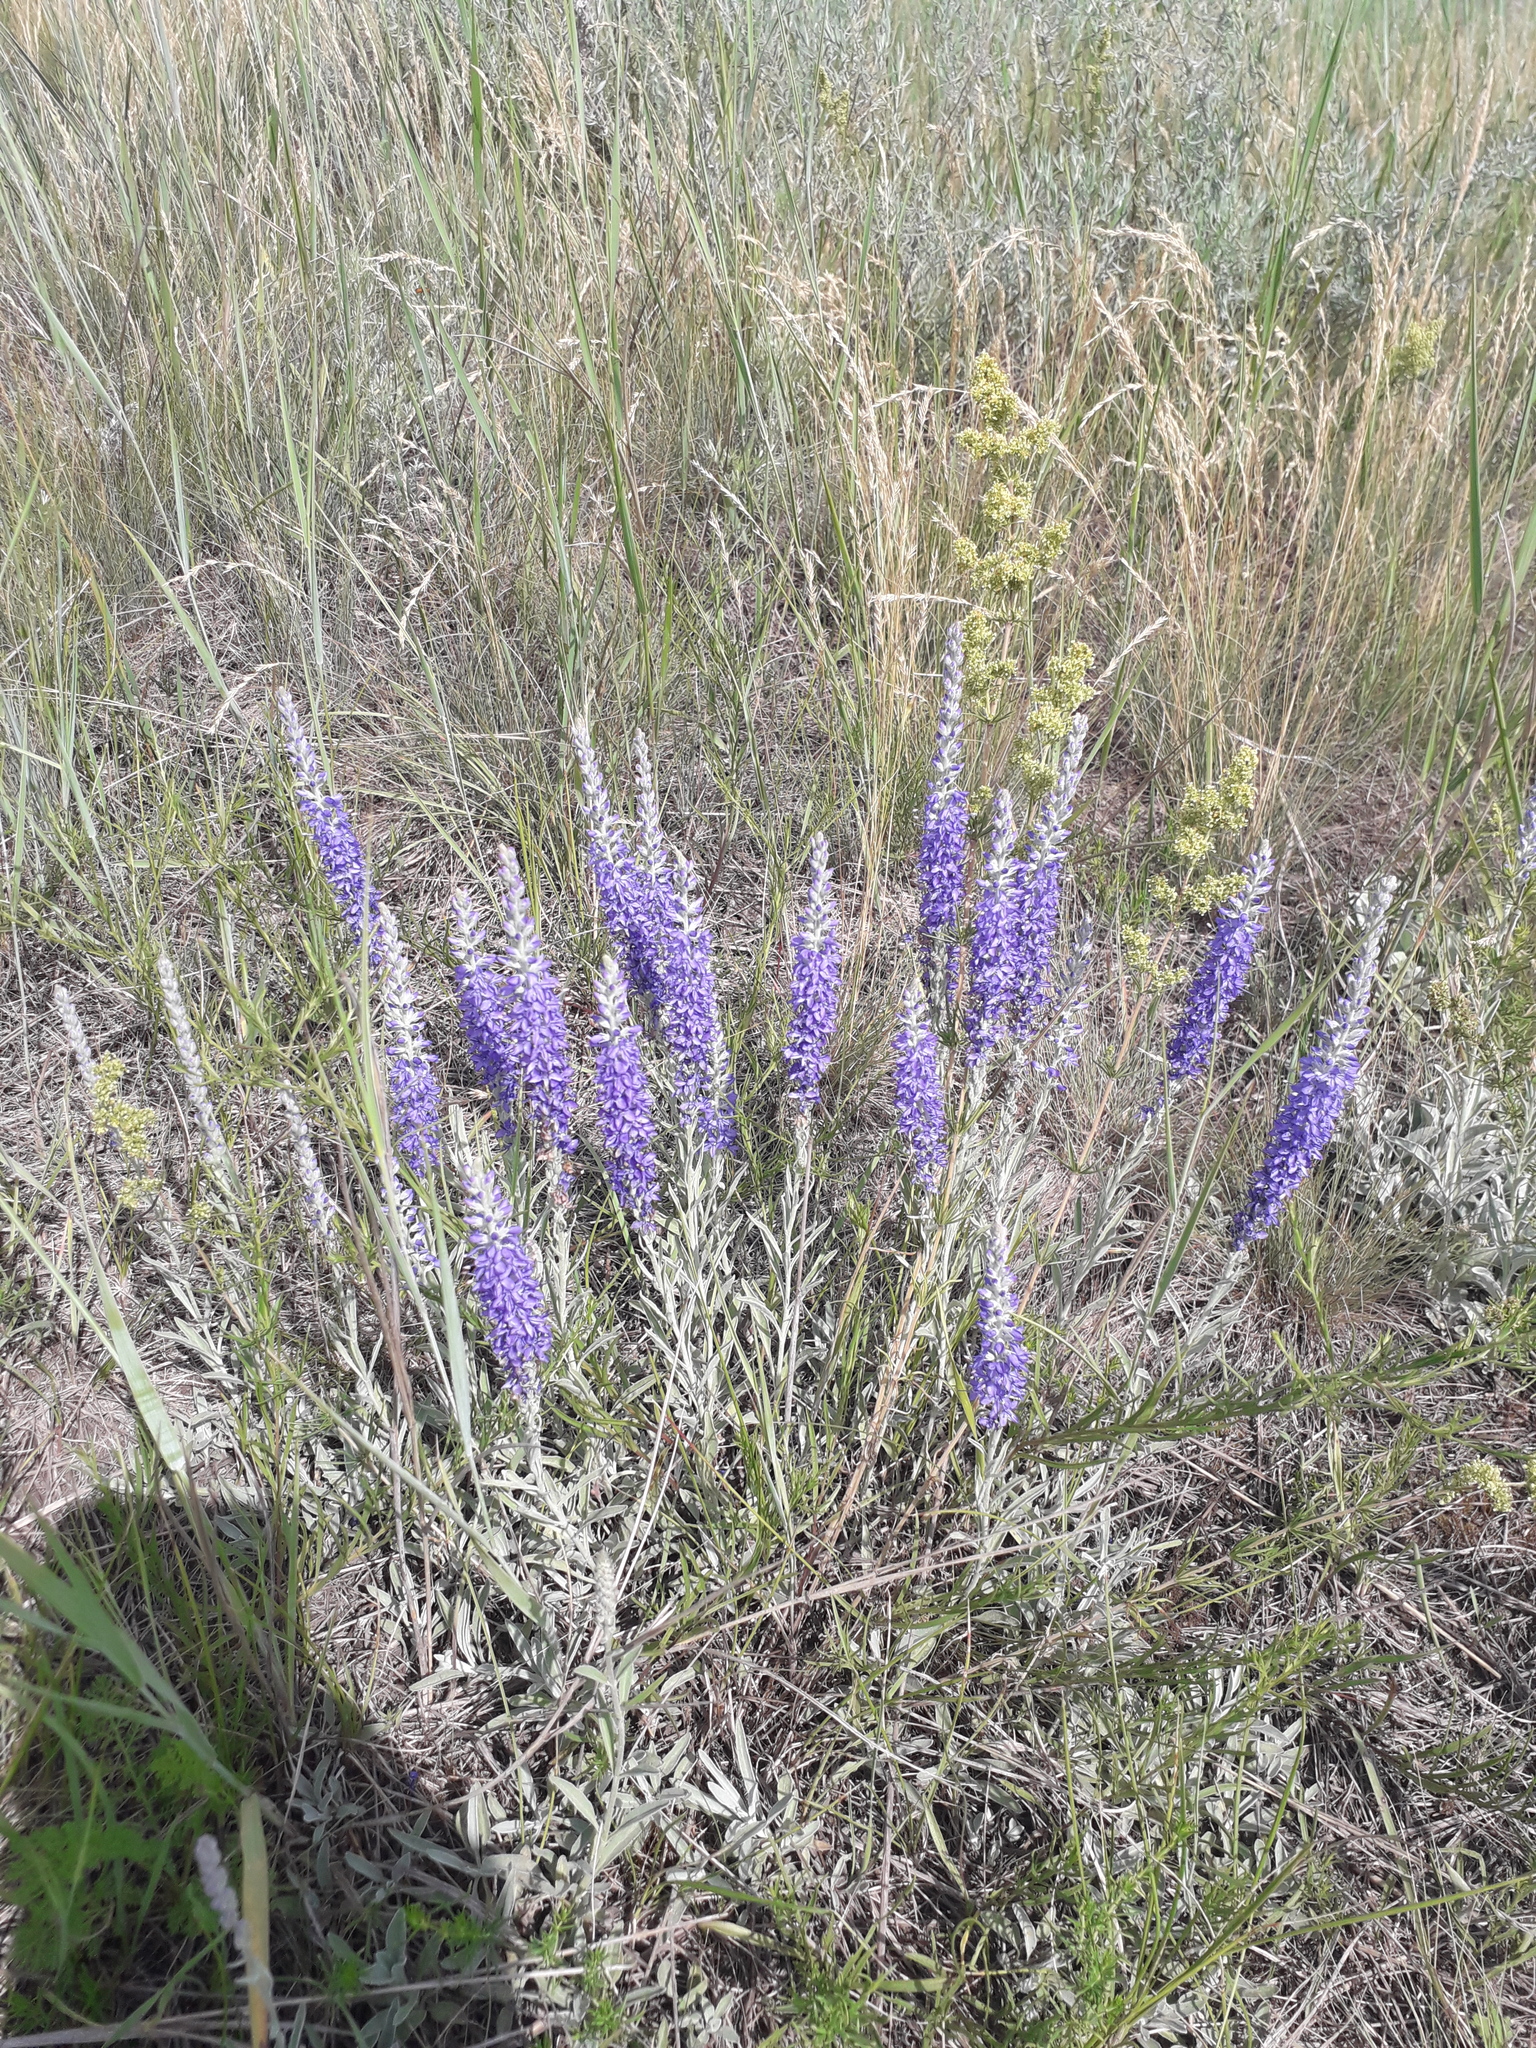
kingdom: Plantae
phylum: Tracheophyta
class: Magnoliopsida
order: Lamiales
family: Plantaginaceae
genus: Veronica
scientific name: Veronica incana
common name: Silver speedwell
